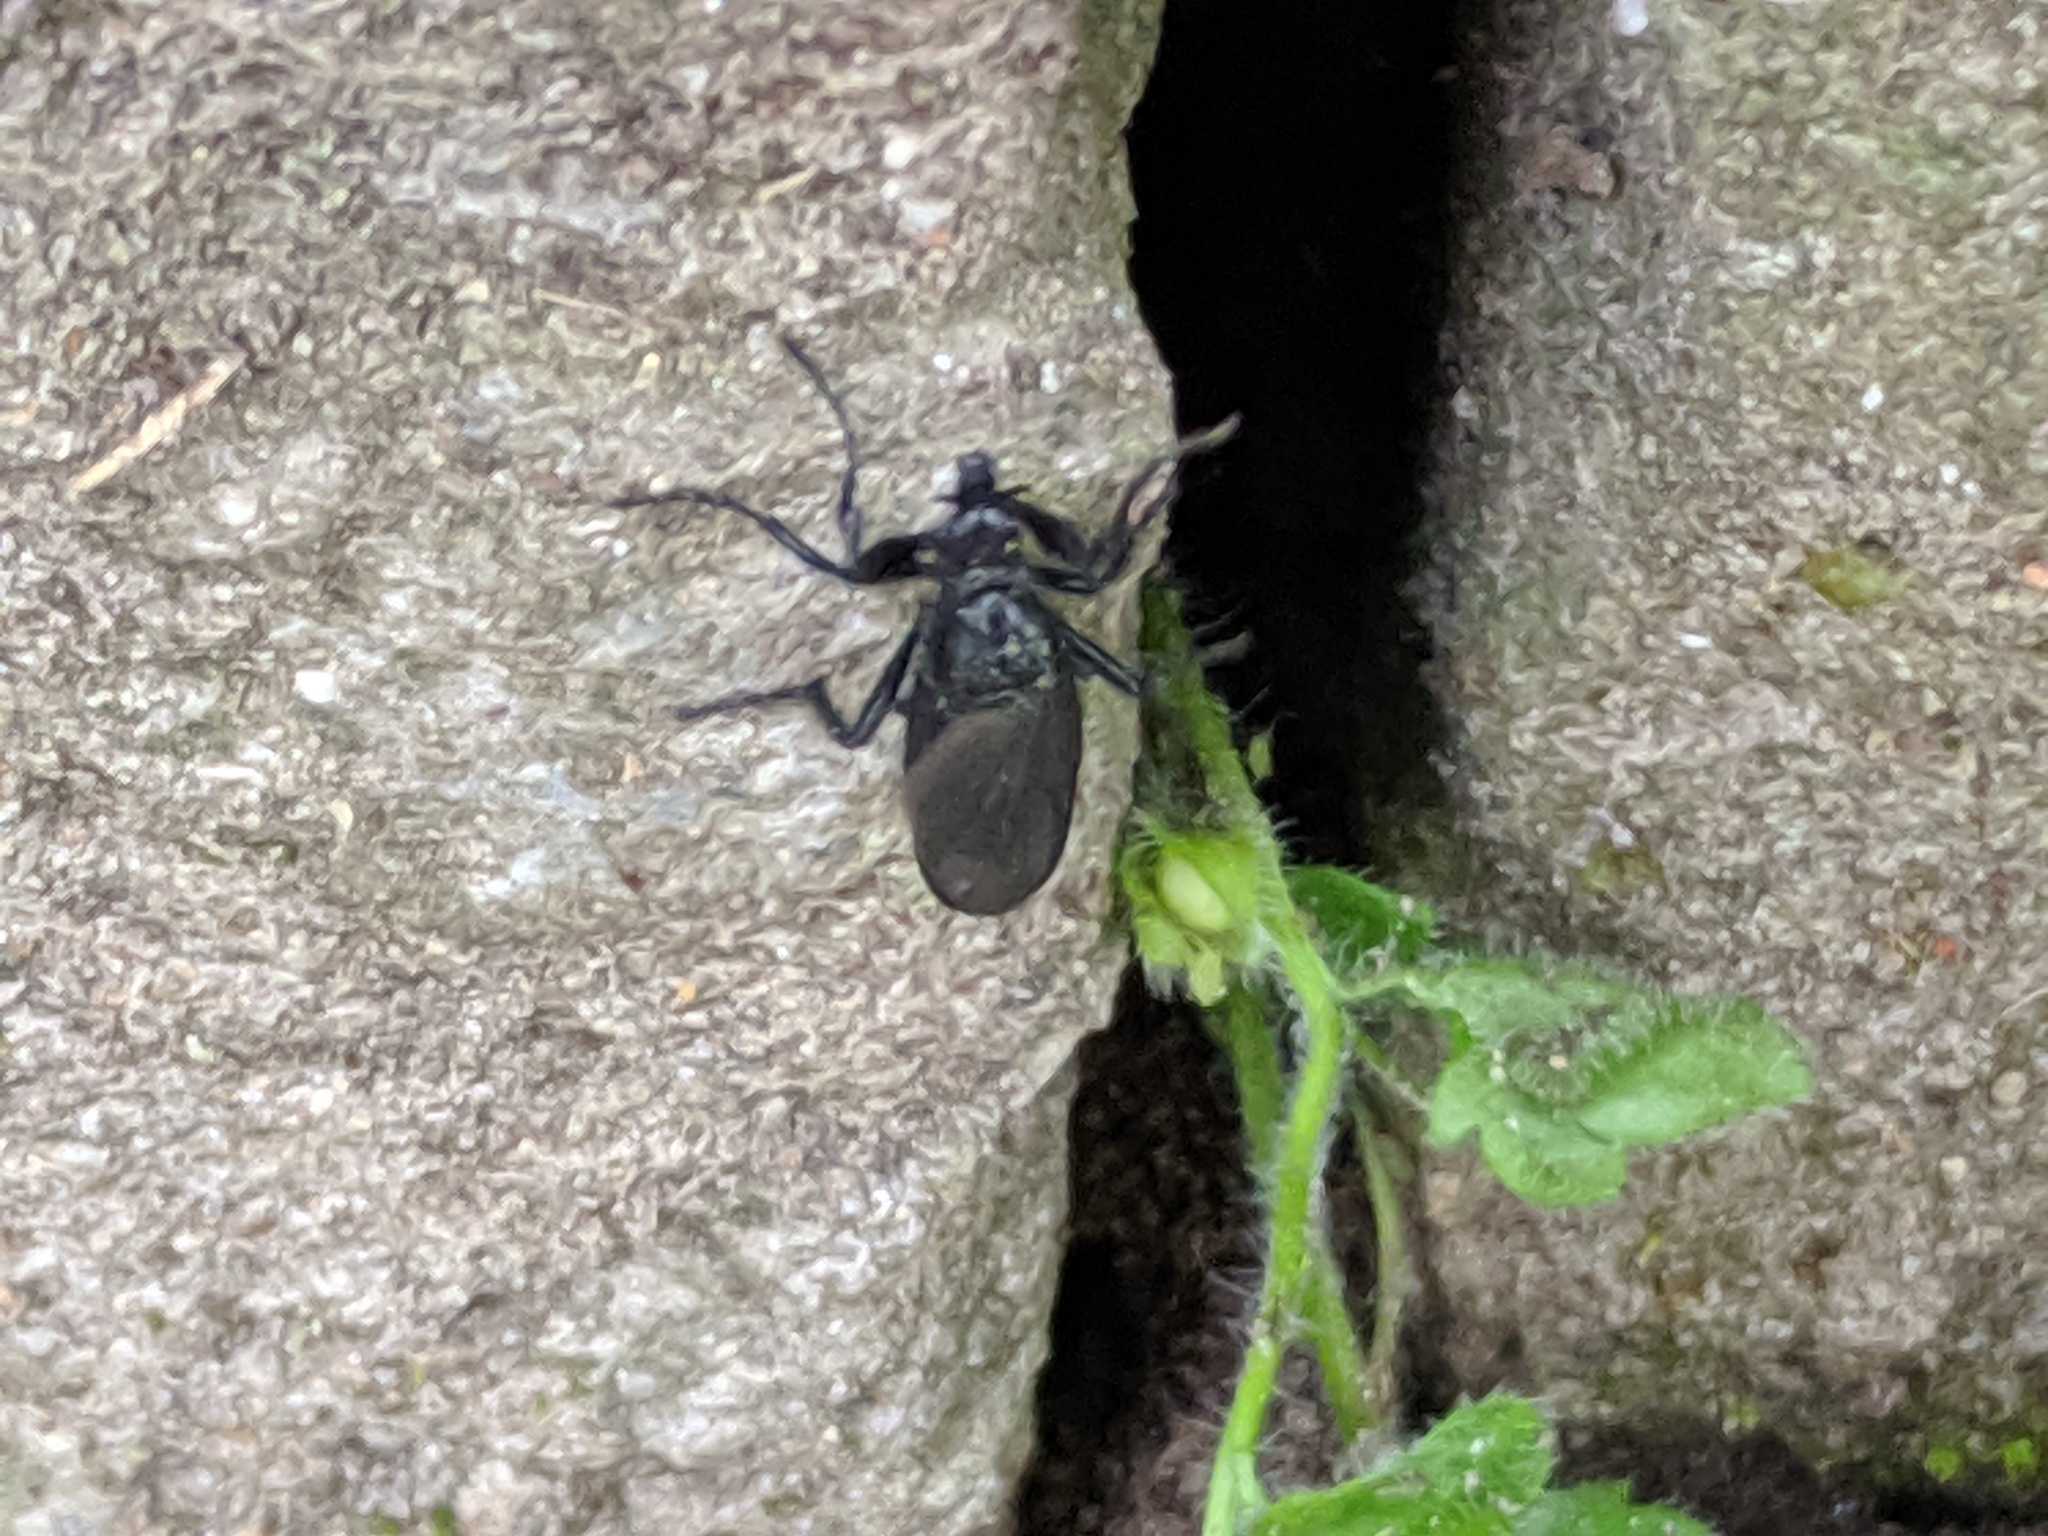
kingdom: Animalia
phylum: Arthropoda
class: Insecta
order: Diptera
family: Bibionidae
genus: Bibio
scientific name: Bibio marci
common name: St marks fly
